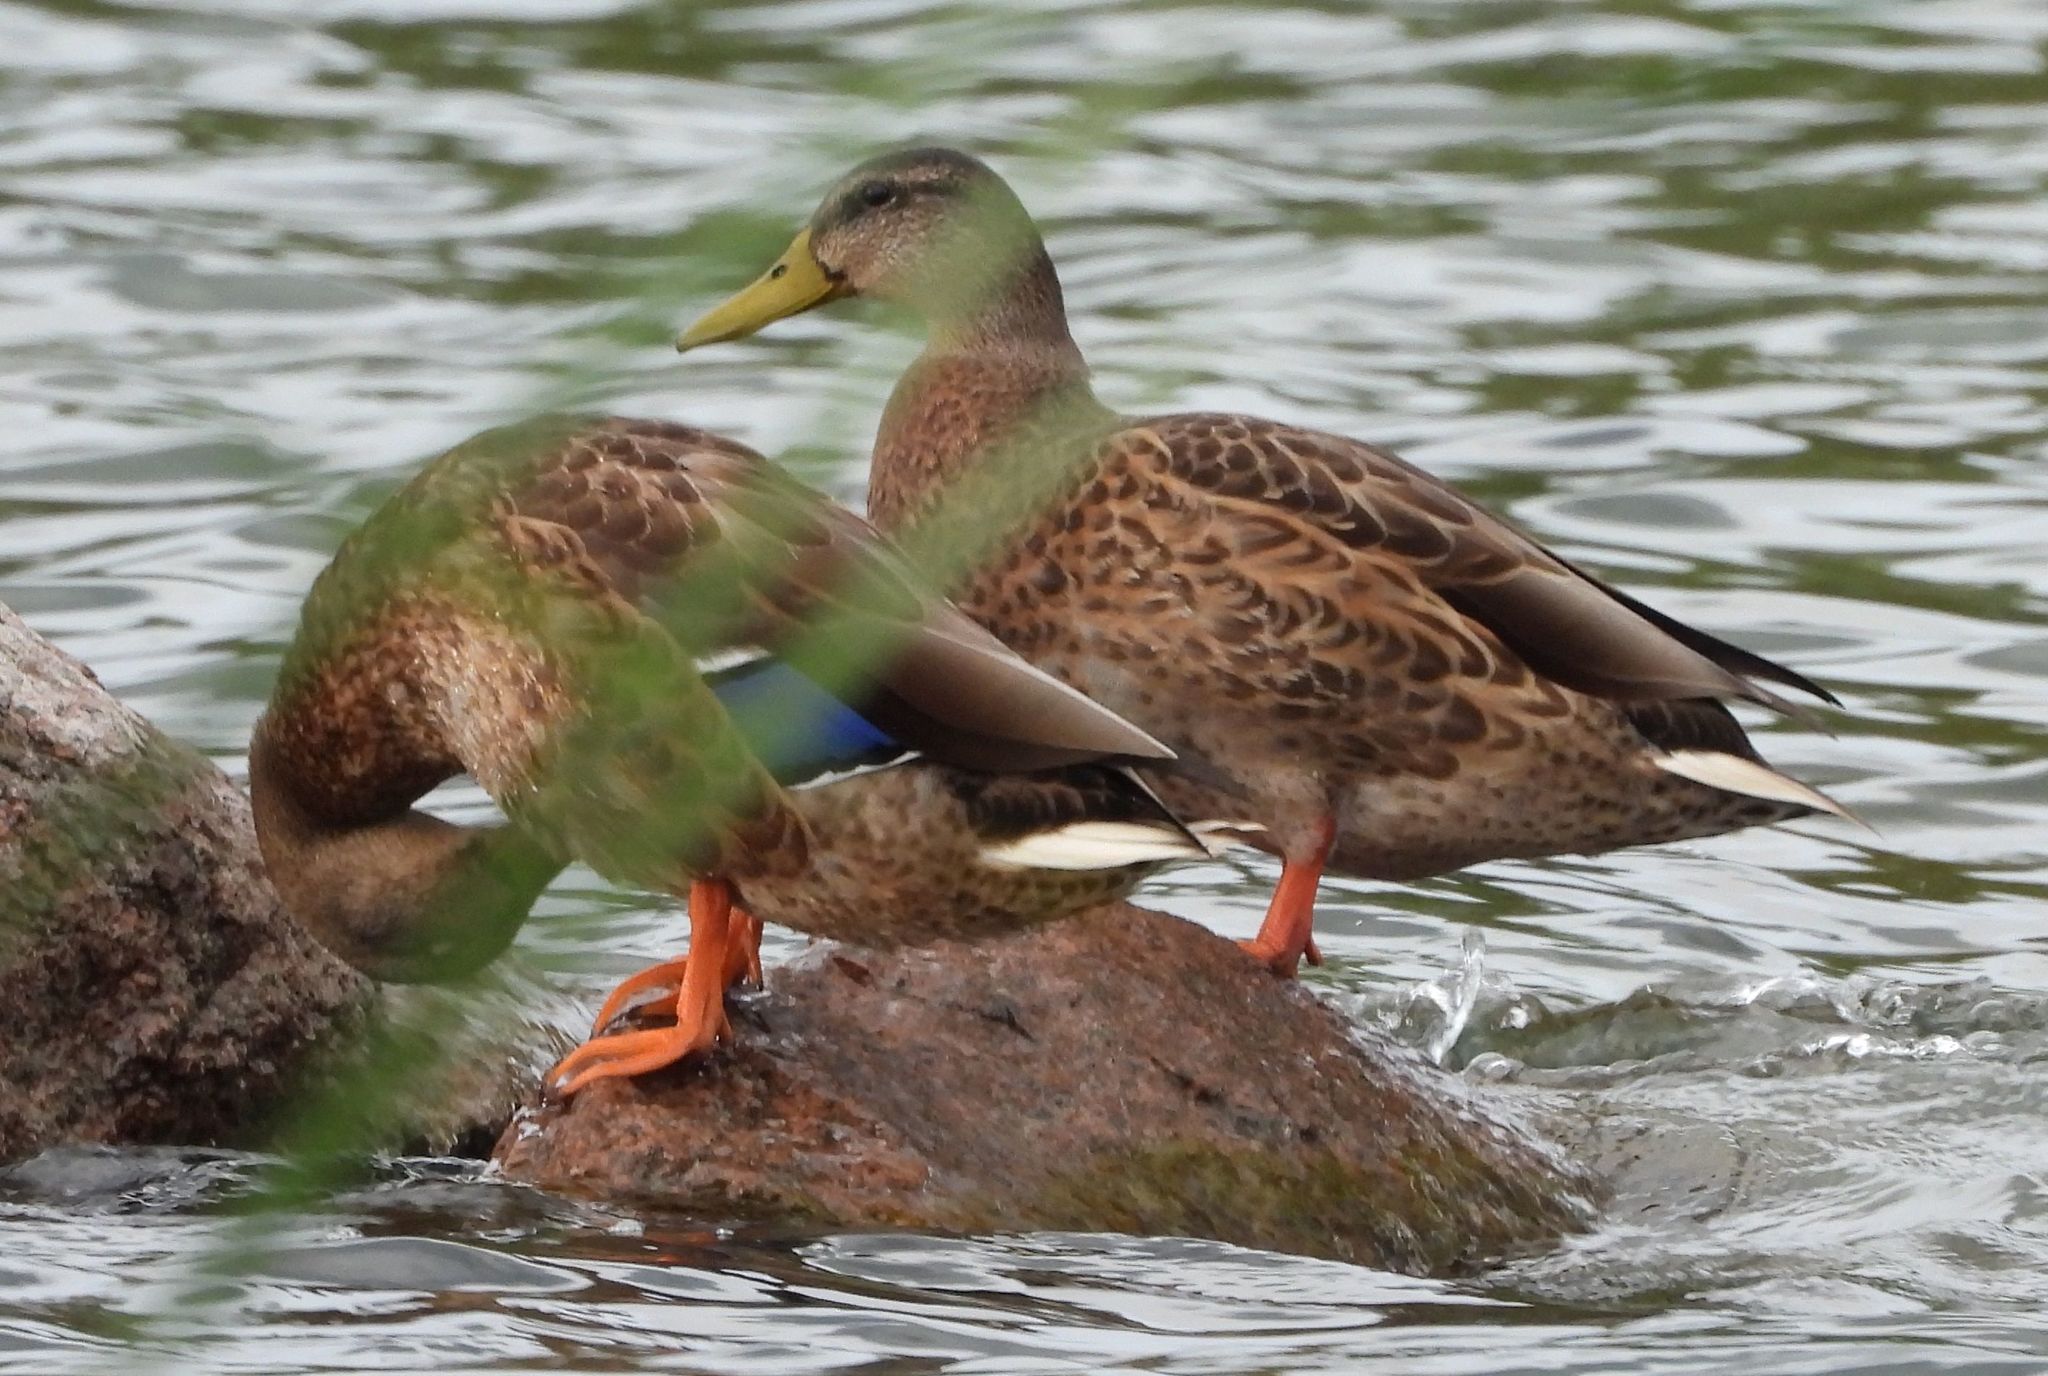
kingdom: Animalia
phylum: Chordata
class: Aves
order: Anseriformes
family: Anatidae
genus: Anas
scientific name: Anas platyrhynchos
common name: Mallard
